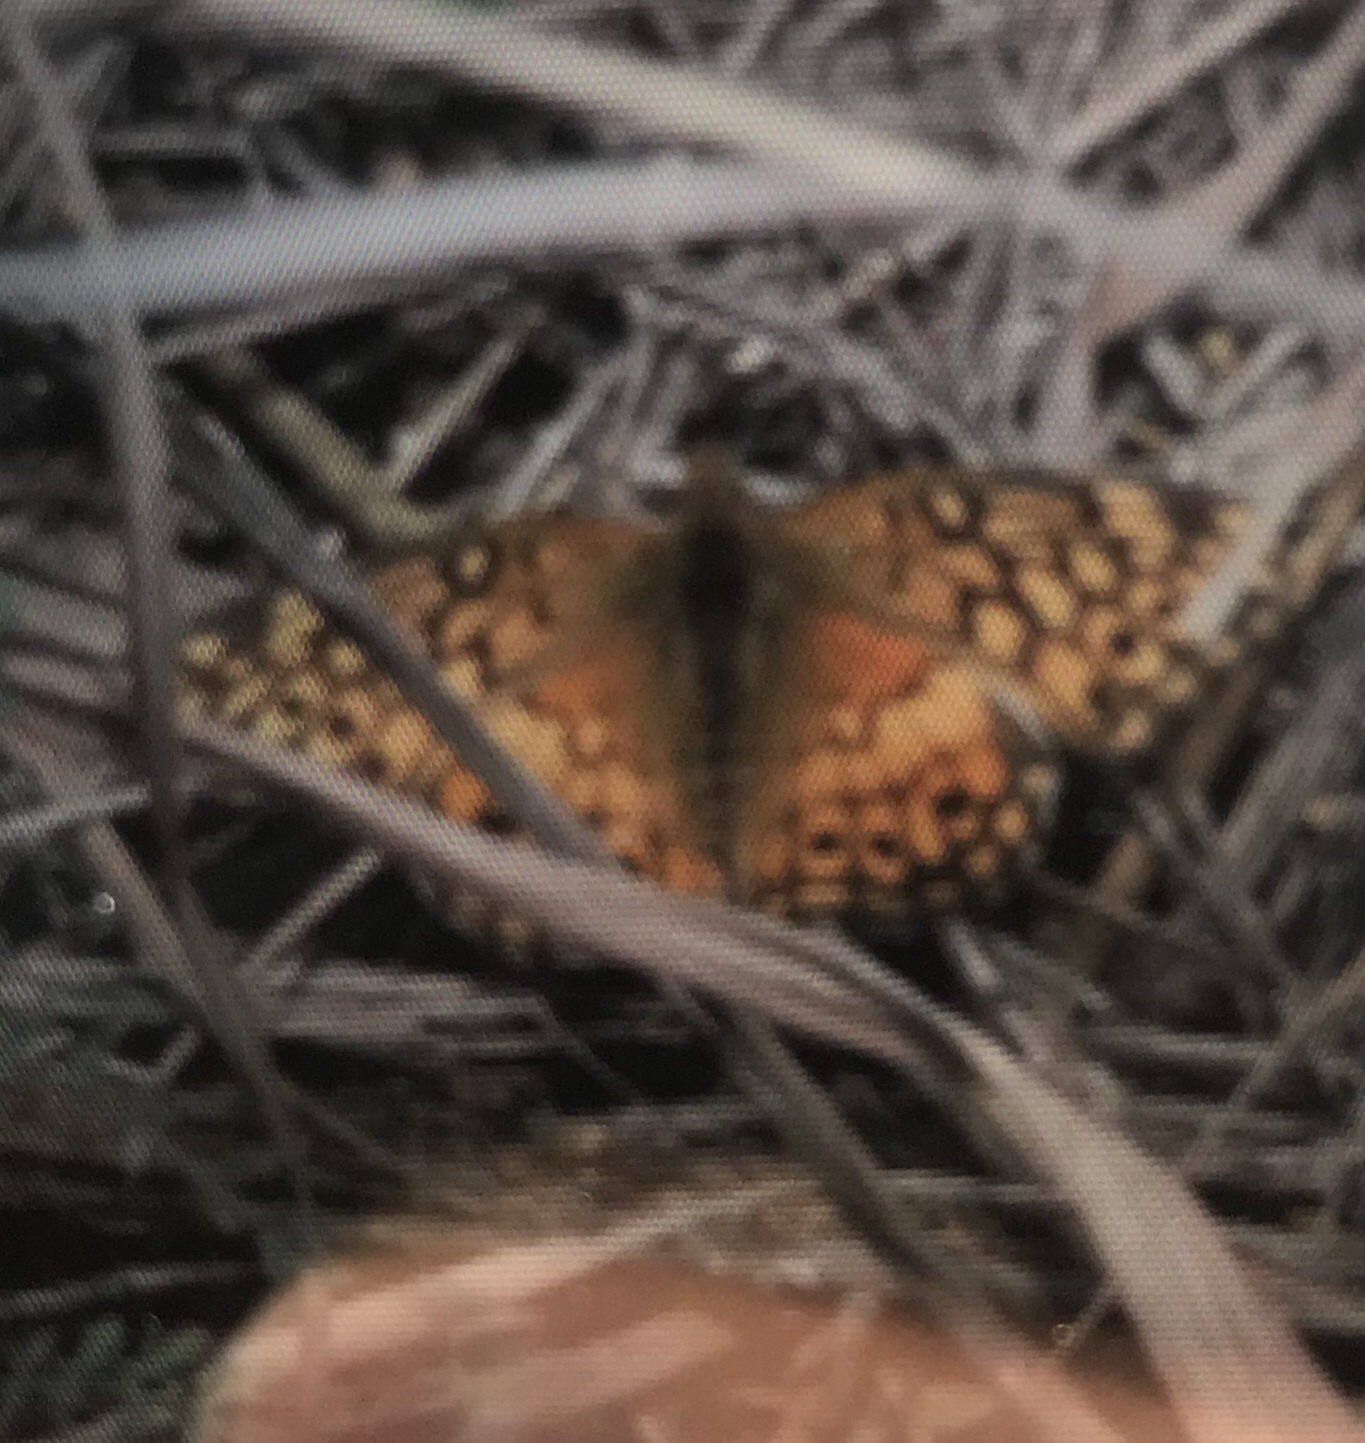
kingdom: Animalia
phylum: Arthropoda
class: Insecta
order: Lepidoptera
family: Nymphalidae
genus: Euptoieta
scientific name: Euptoieta claudia
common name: Variegated fritillary
